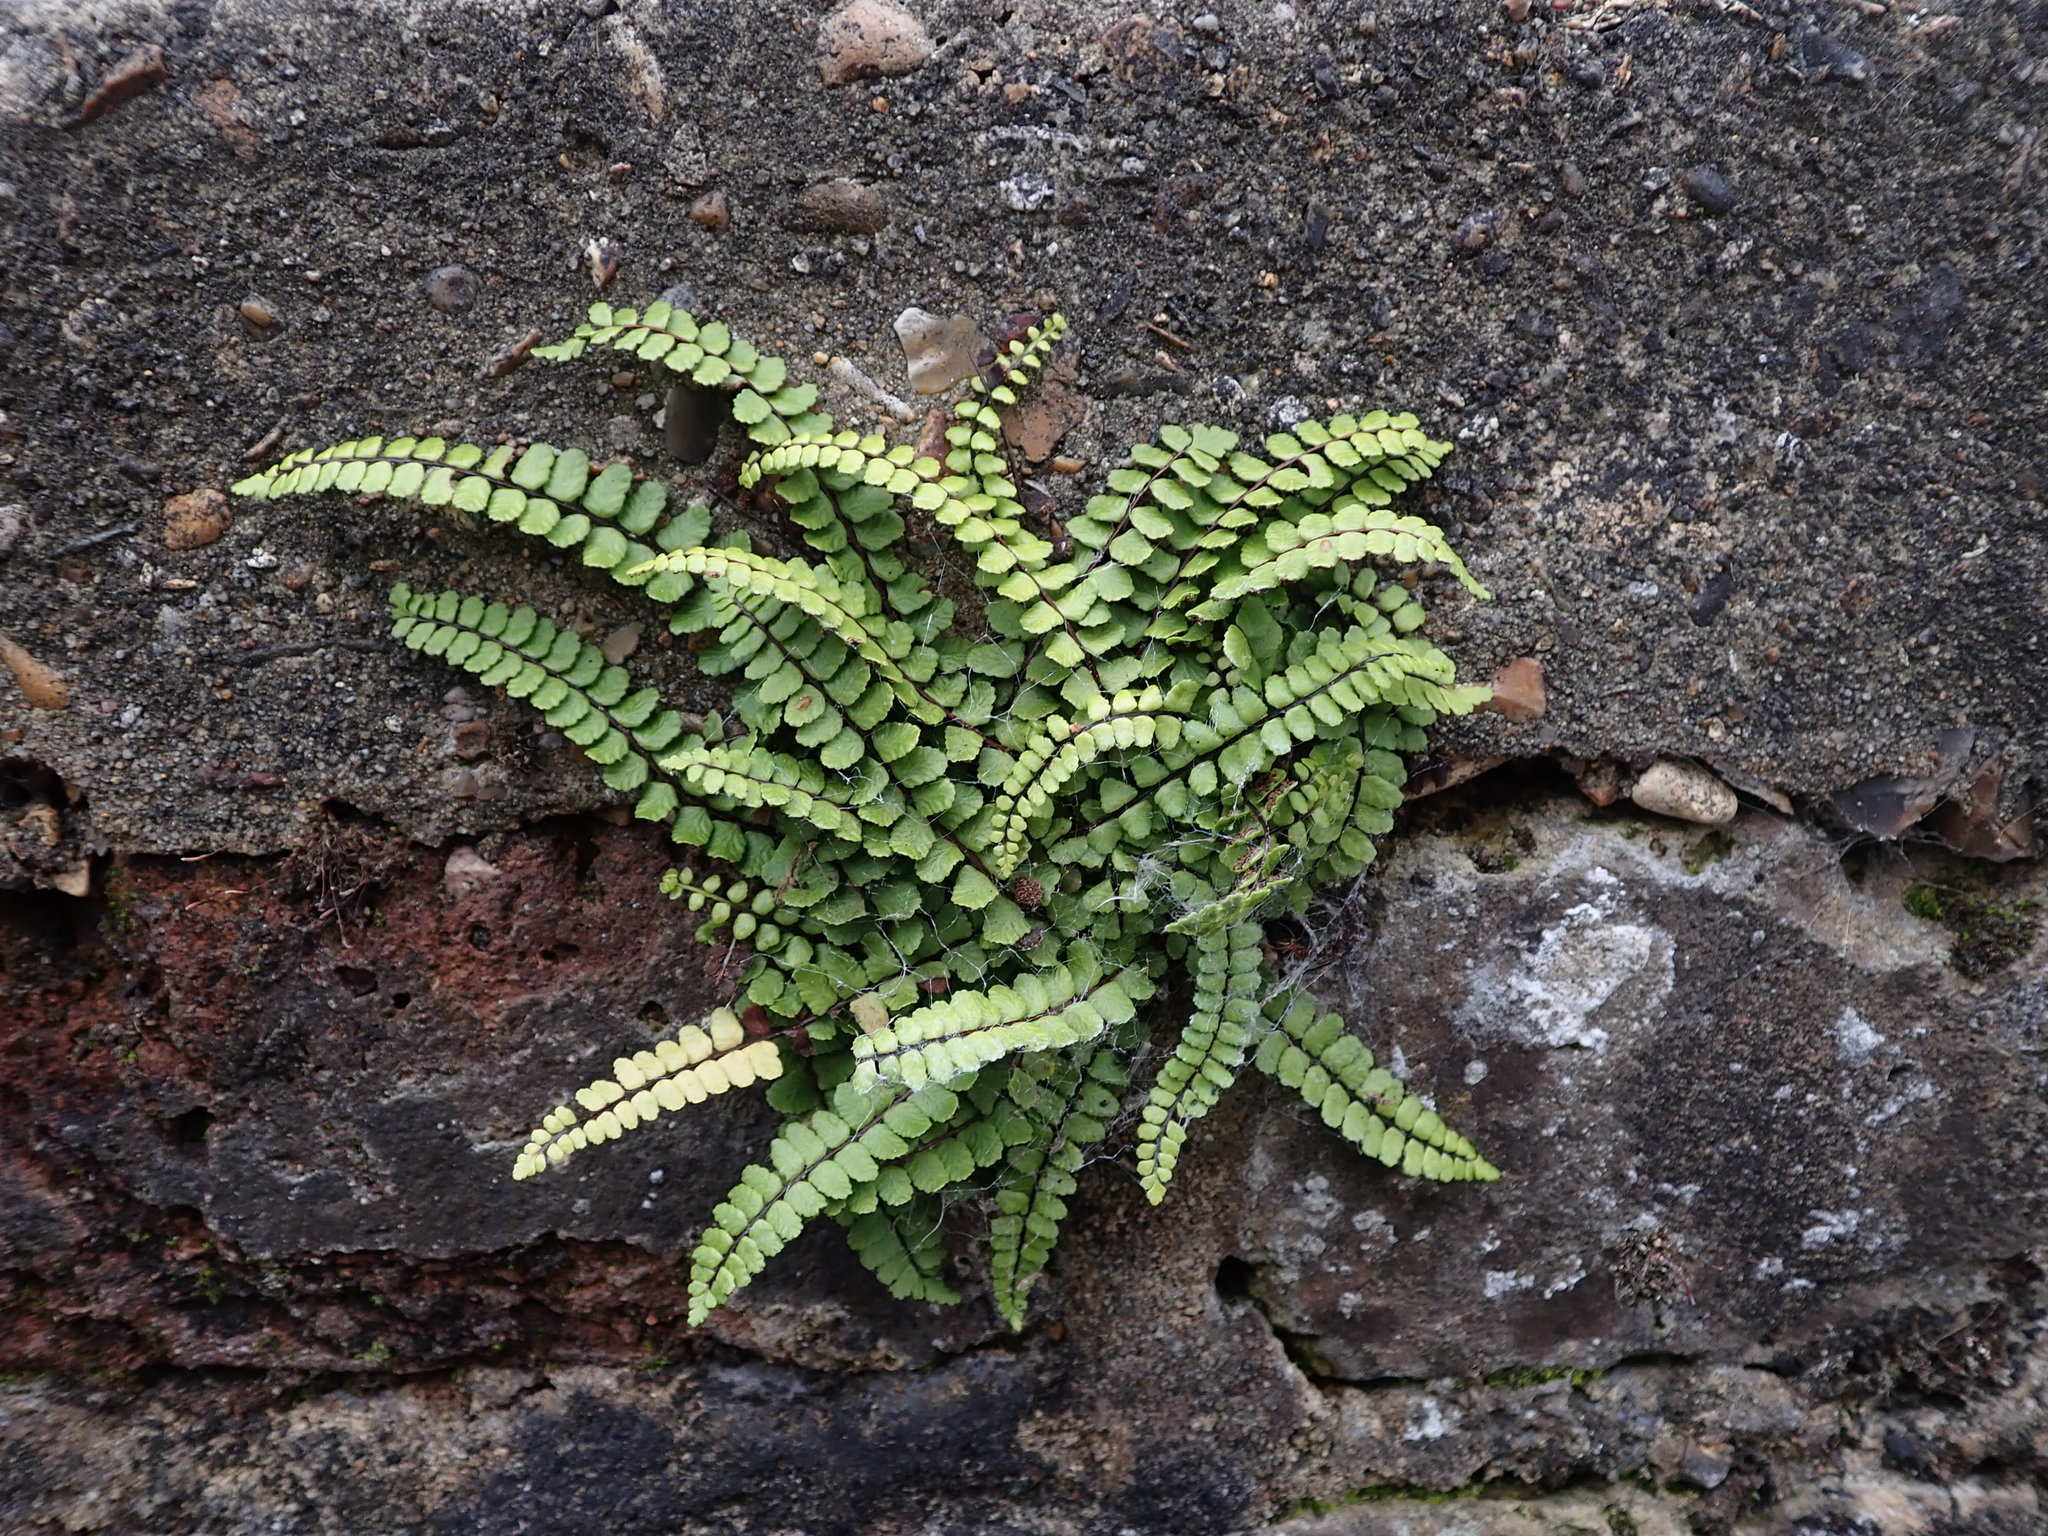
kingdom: Plantae
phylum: Tracheophyta
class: Polypodiopsida
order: Polypodiales
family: Aspleniaceae
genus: Asplenium
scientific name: Asplenium trichomanes
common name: Maidenhair spleenwort
